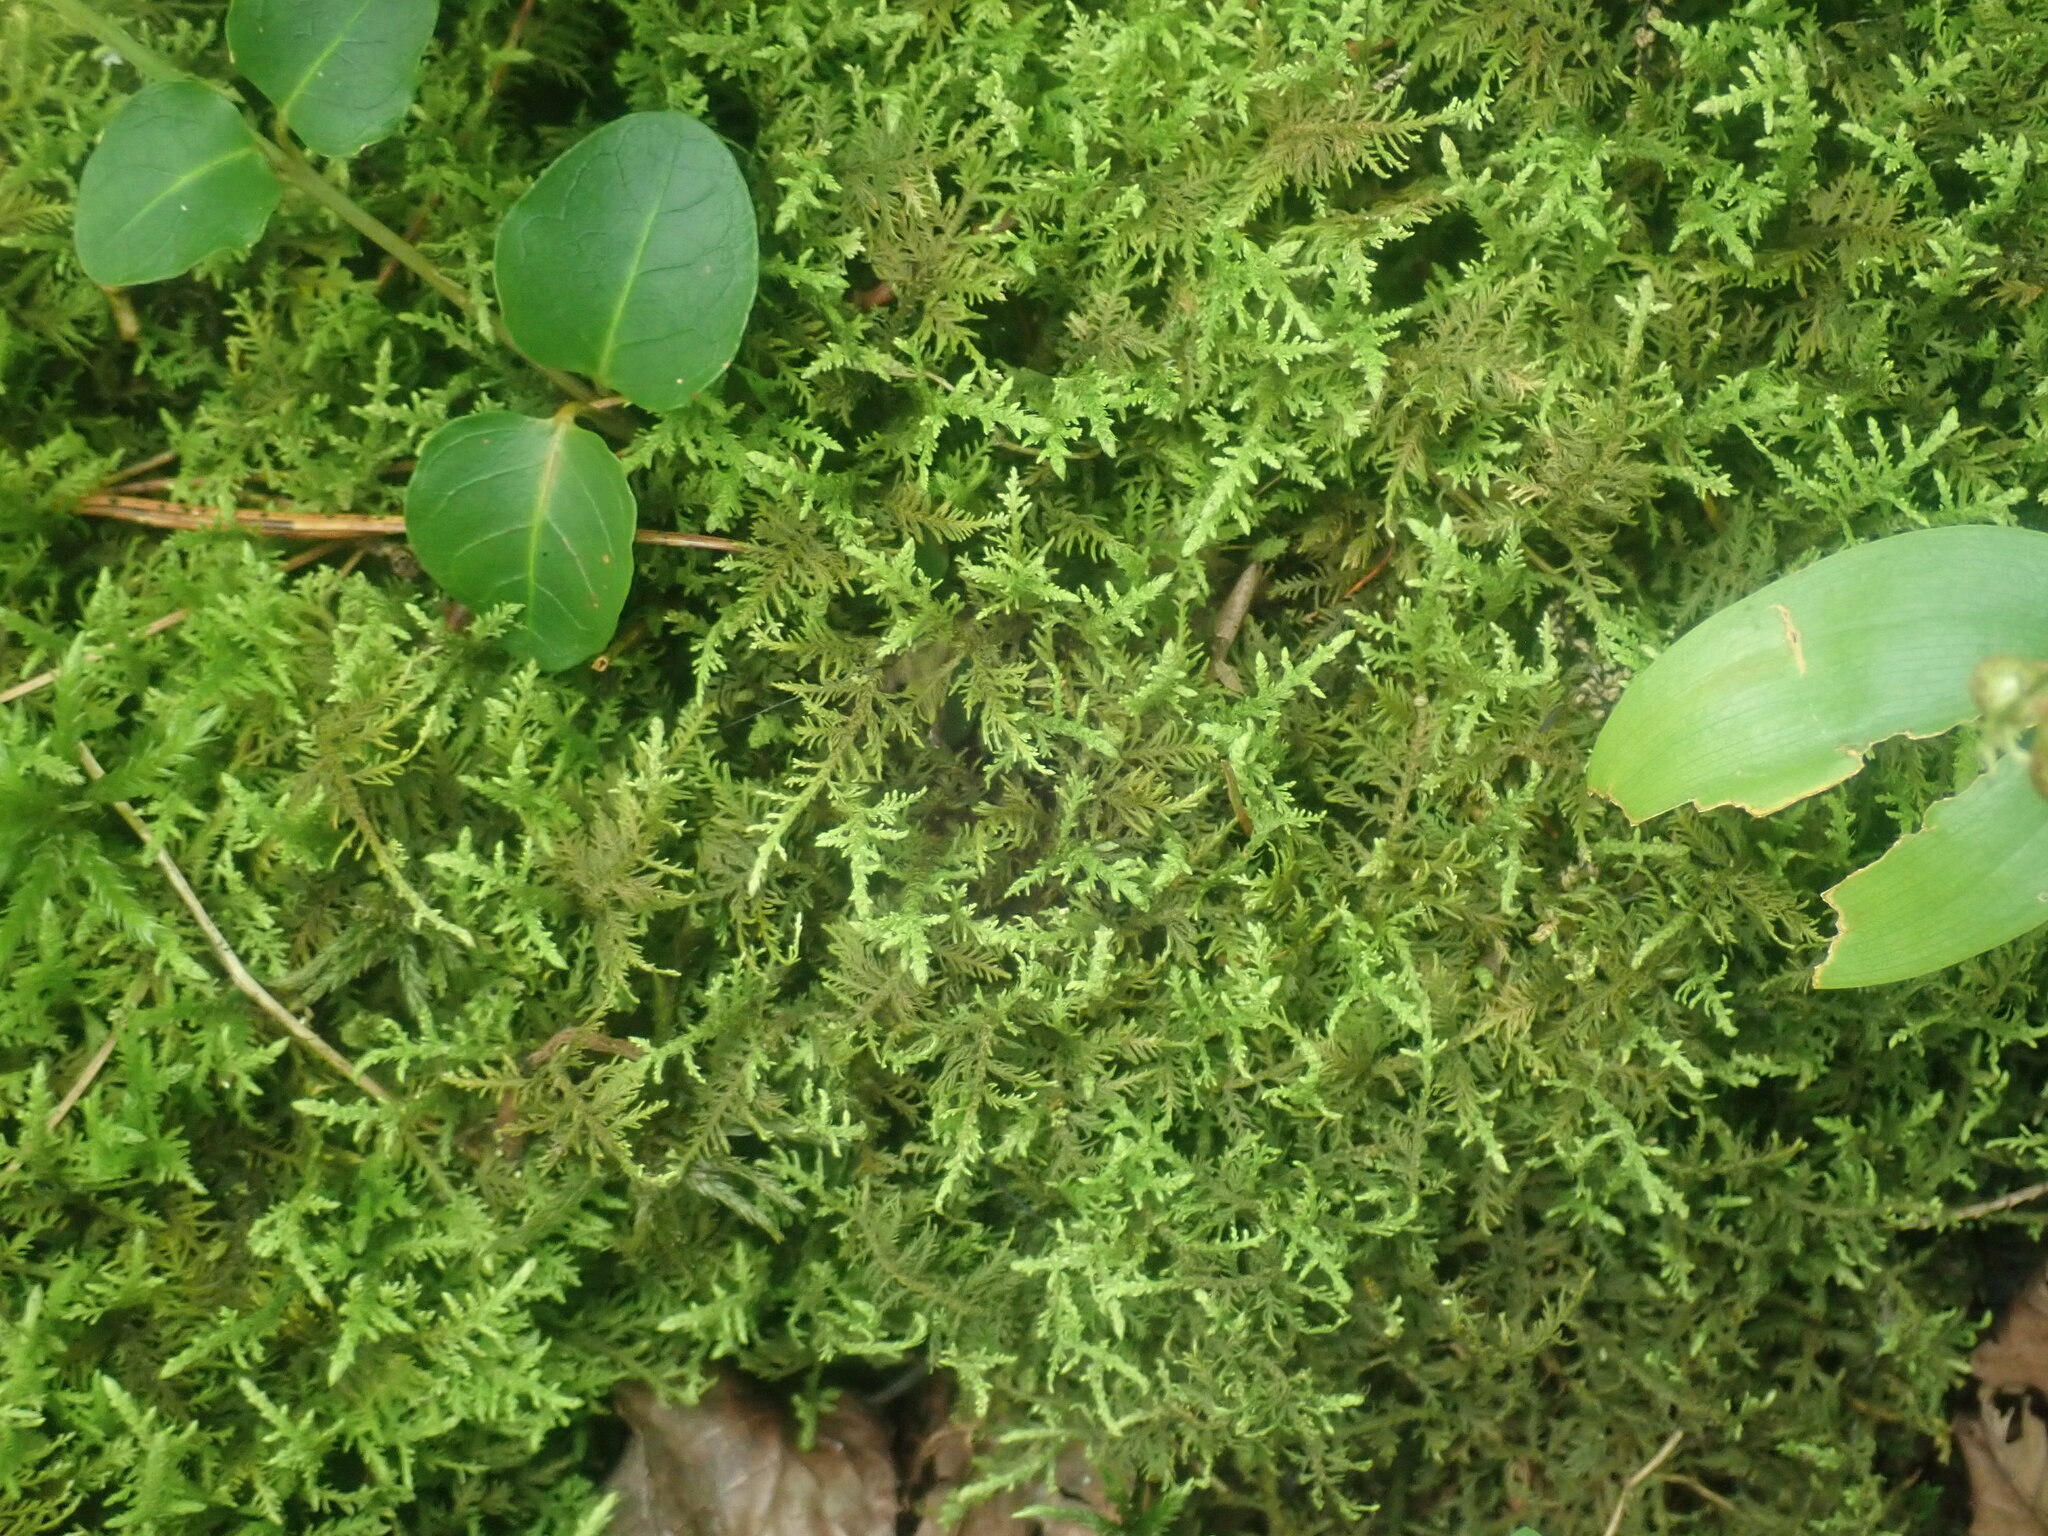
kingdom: Plantae
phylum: Bryophyta
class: Bryopsida
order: Hypnales
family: Thuidiaceae
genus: Thuidium
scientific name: Thuidium delicatulum
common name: Delicate fern moss
